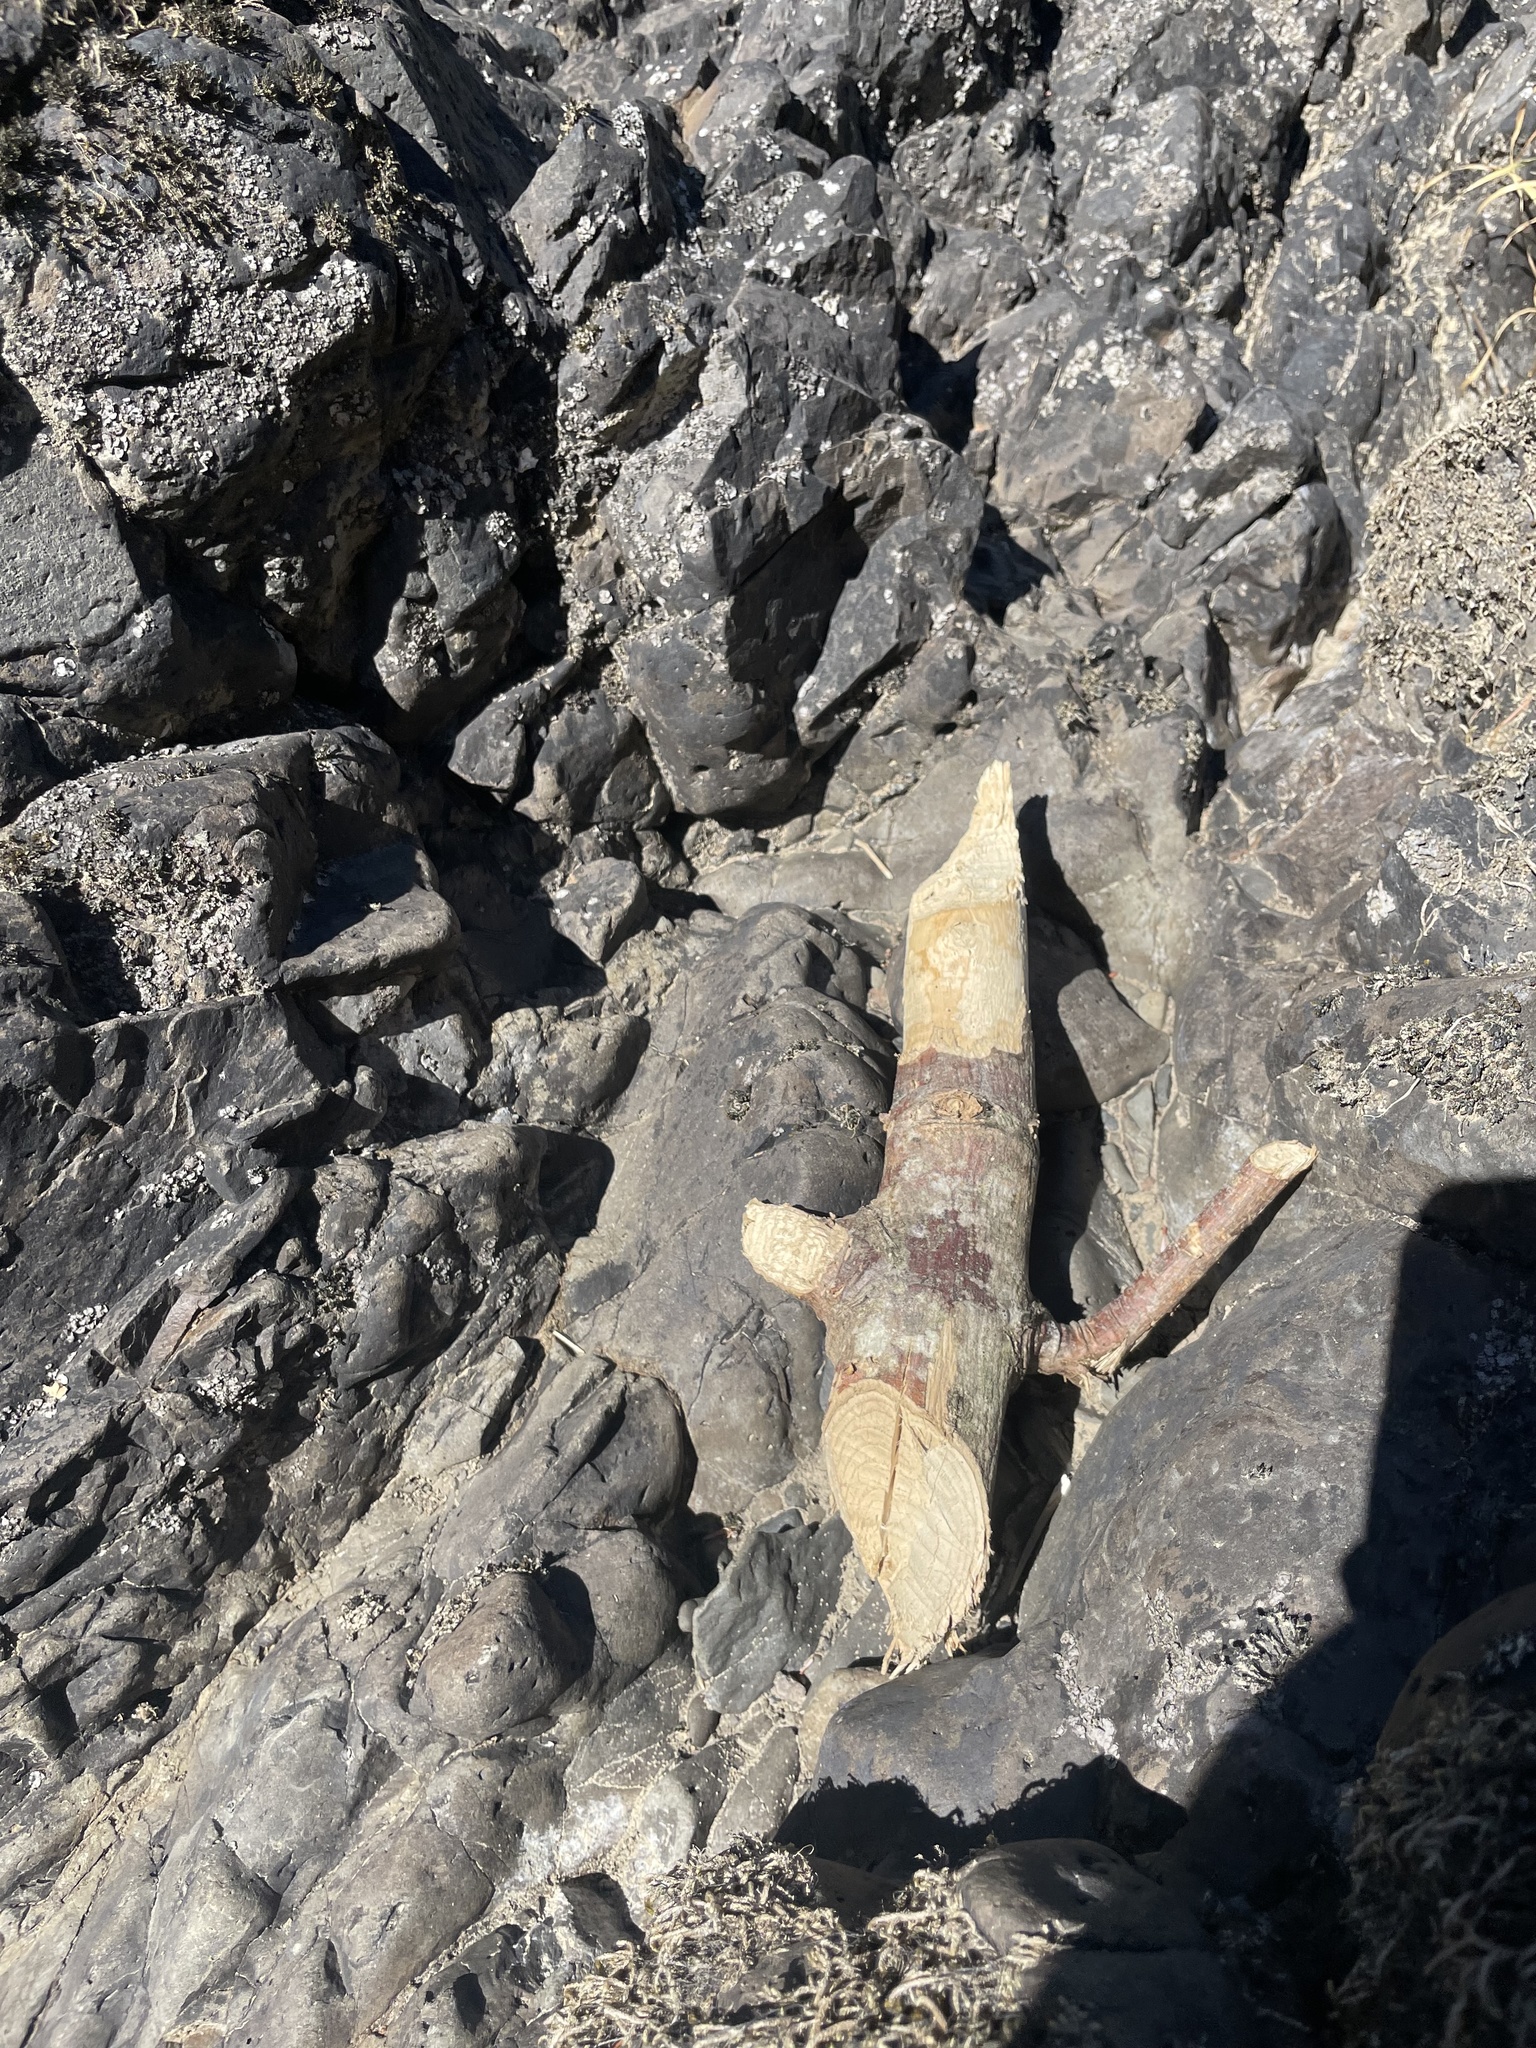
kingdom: Animalia
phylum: Chordata
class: Mammalia
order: Rodentia
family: Castoridae
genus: Castor
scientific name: Castor canadensis
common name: American beaver
